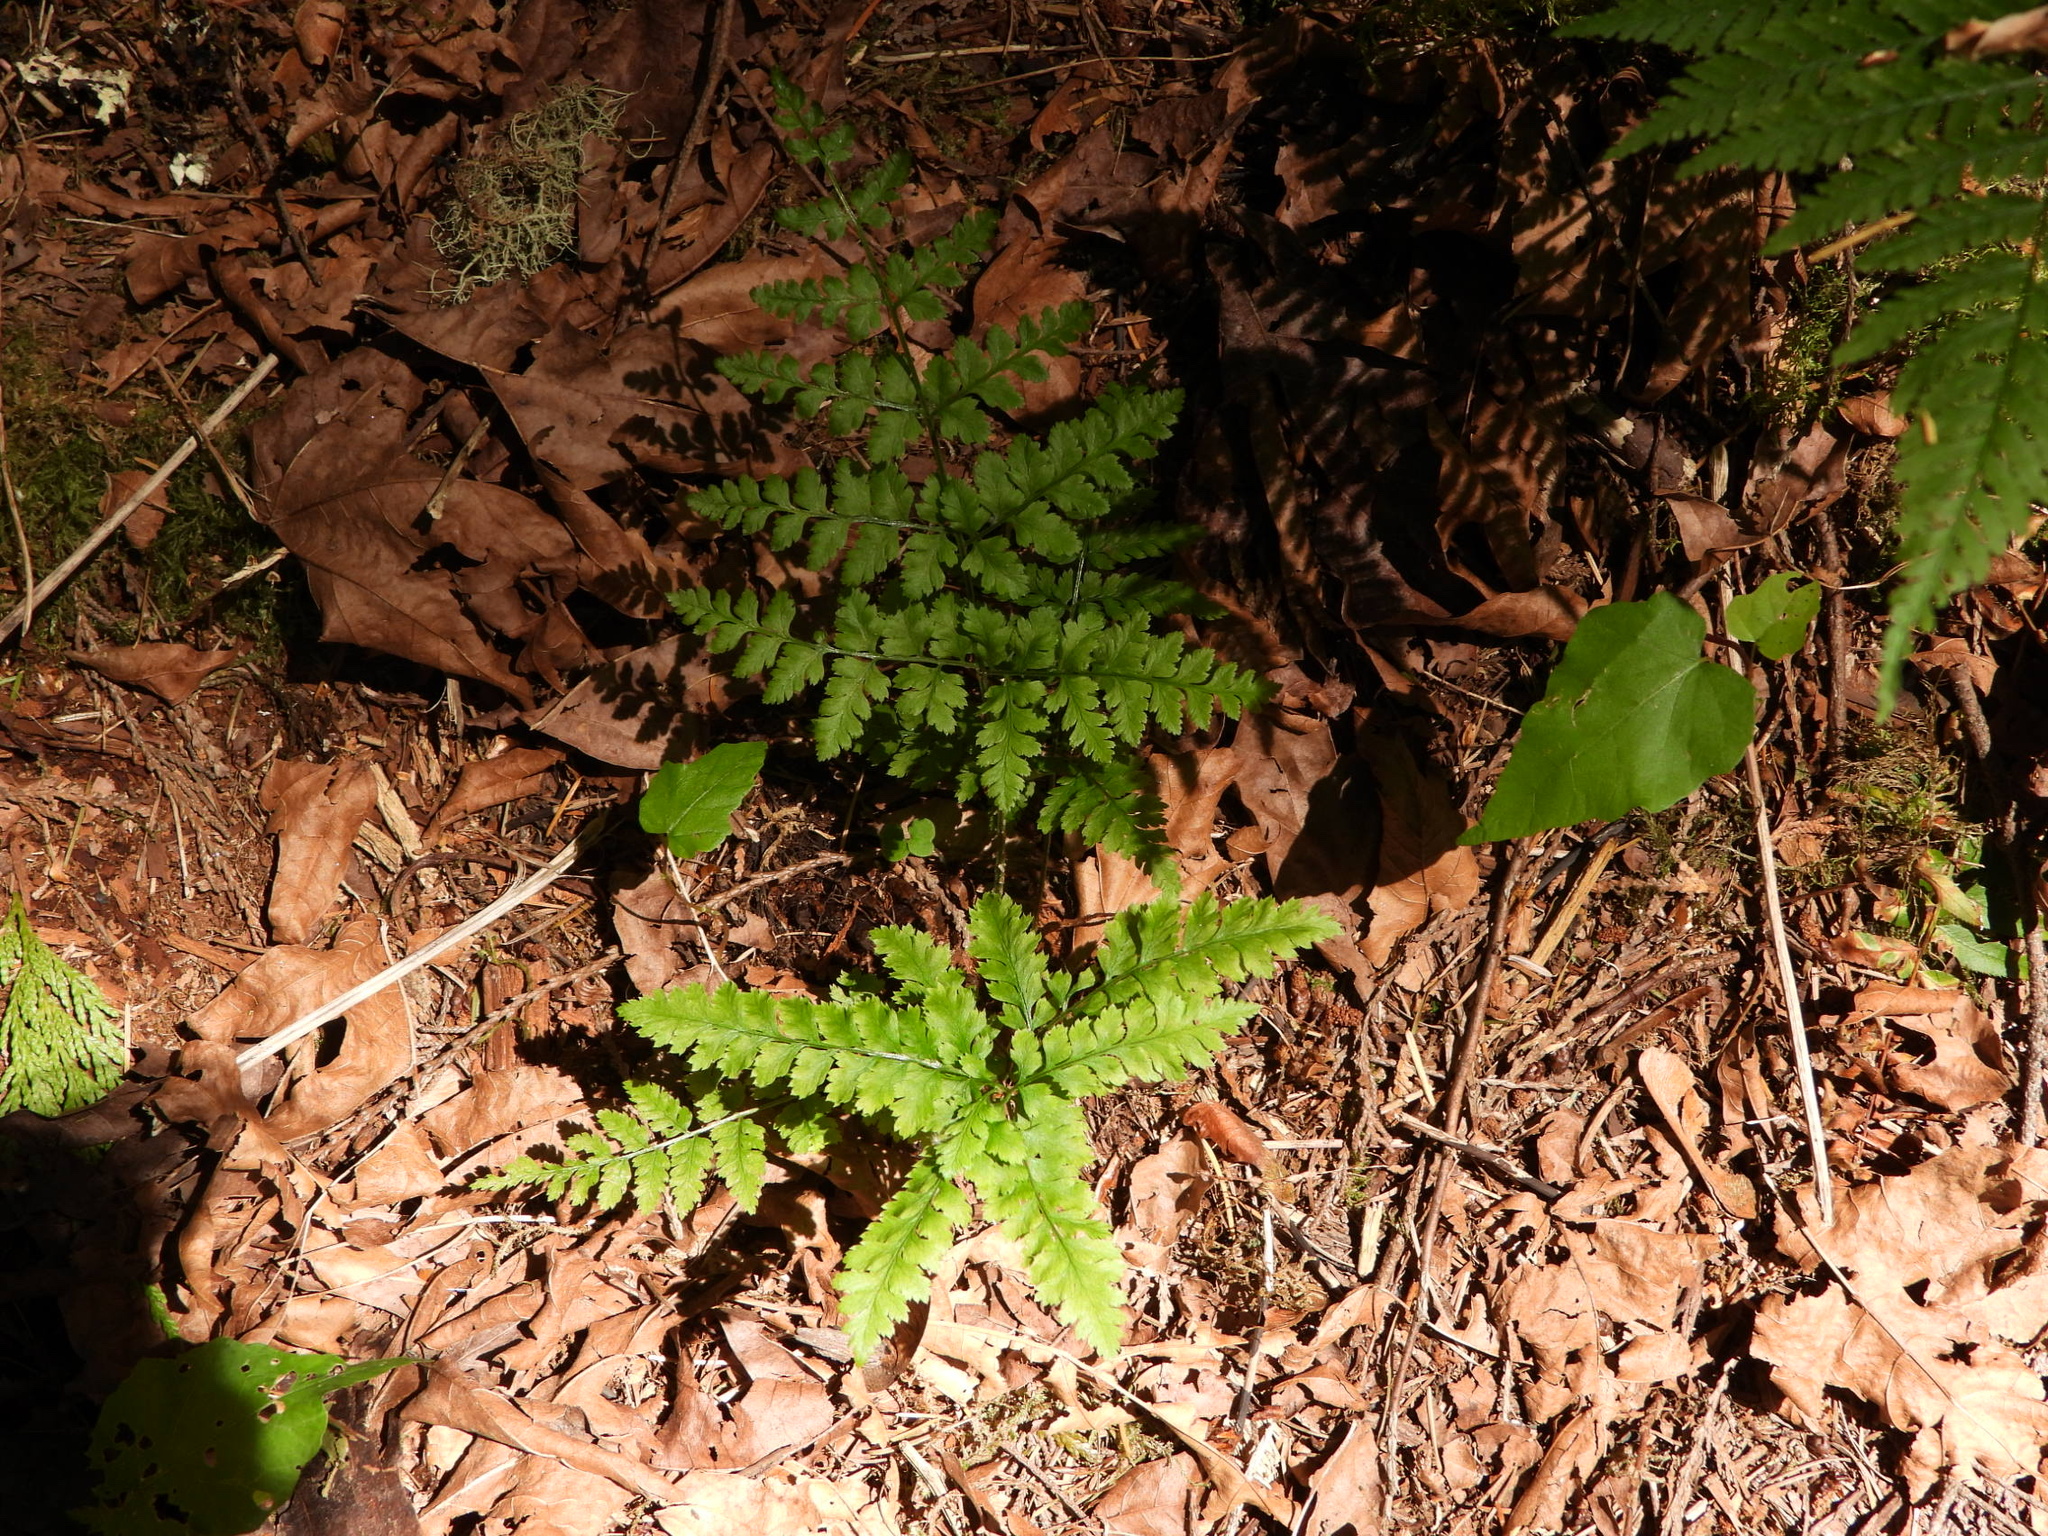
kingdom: Plantae
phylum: Tracheophyta
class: Polypodiopsida
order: Polypodiales
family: Dryopteridaceae
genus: Dryopteris
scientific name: Dryopteris expansa
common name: Northern buckler fern
